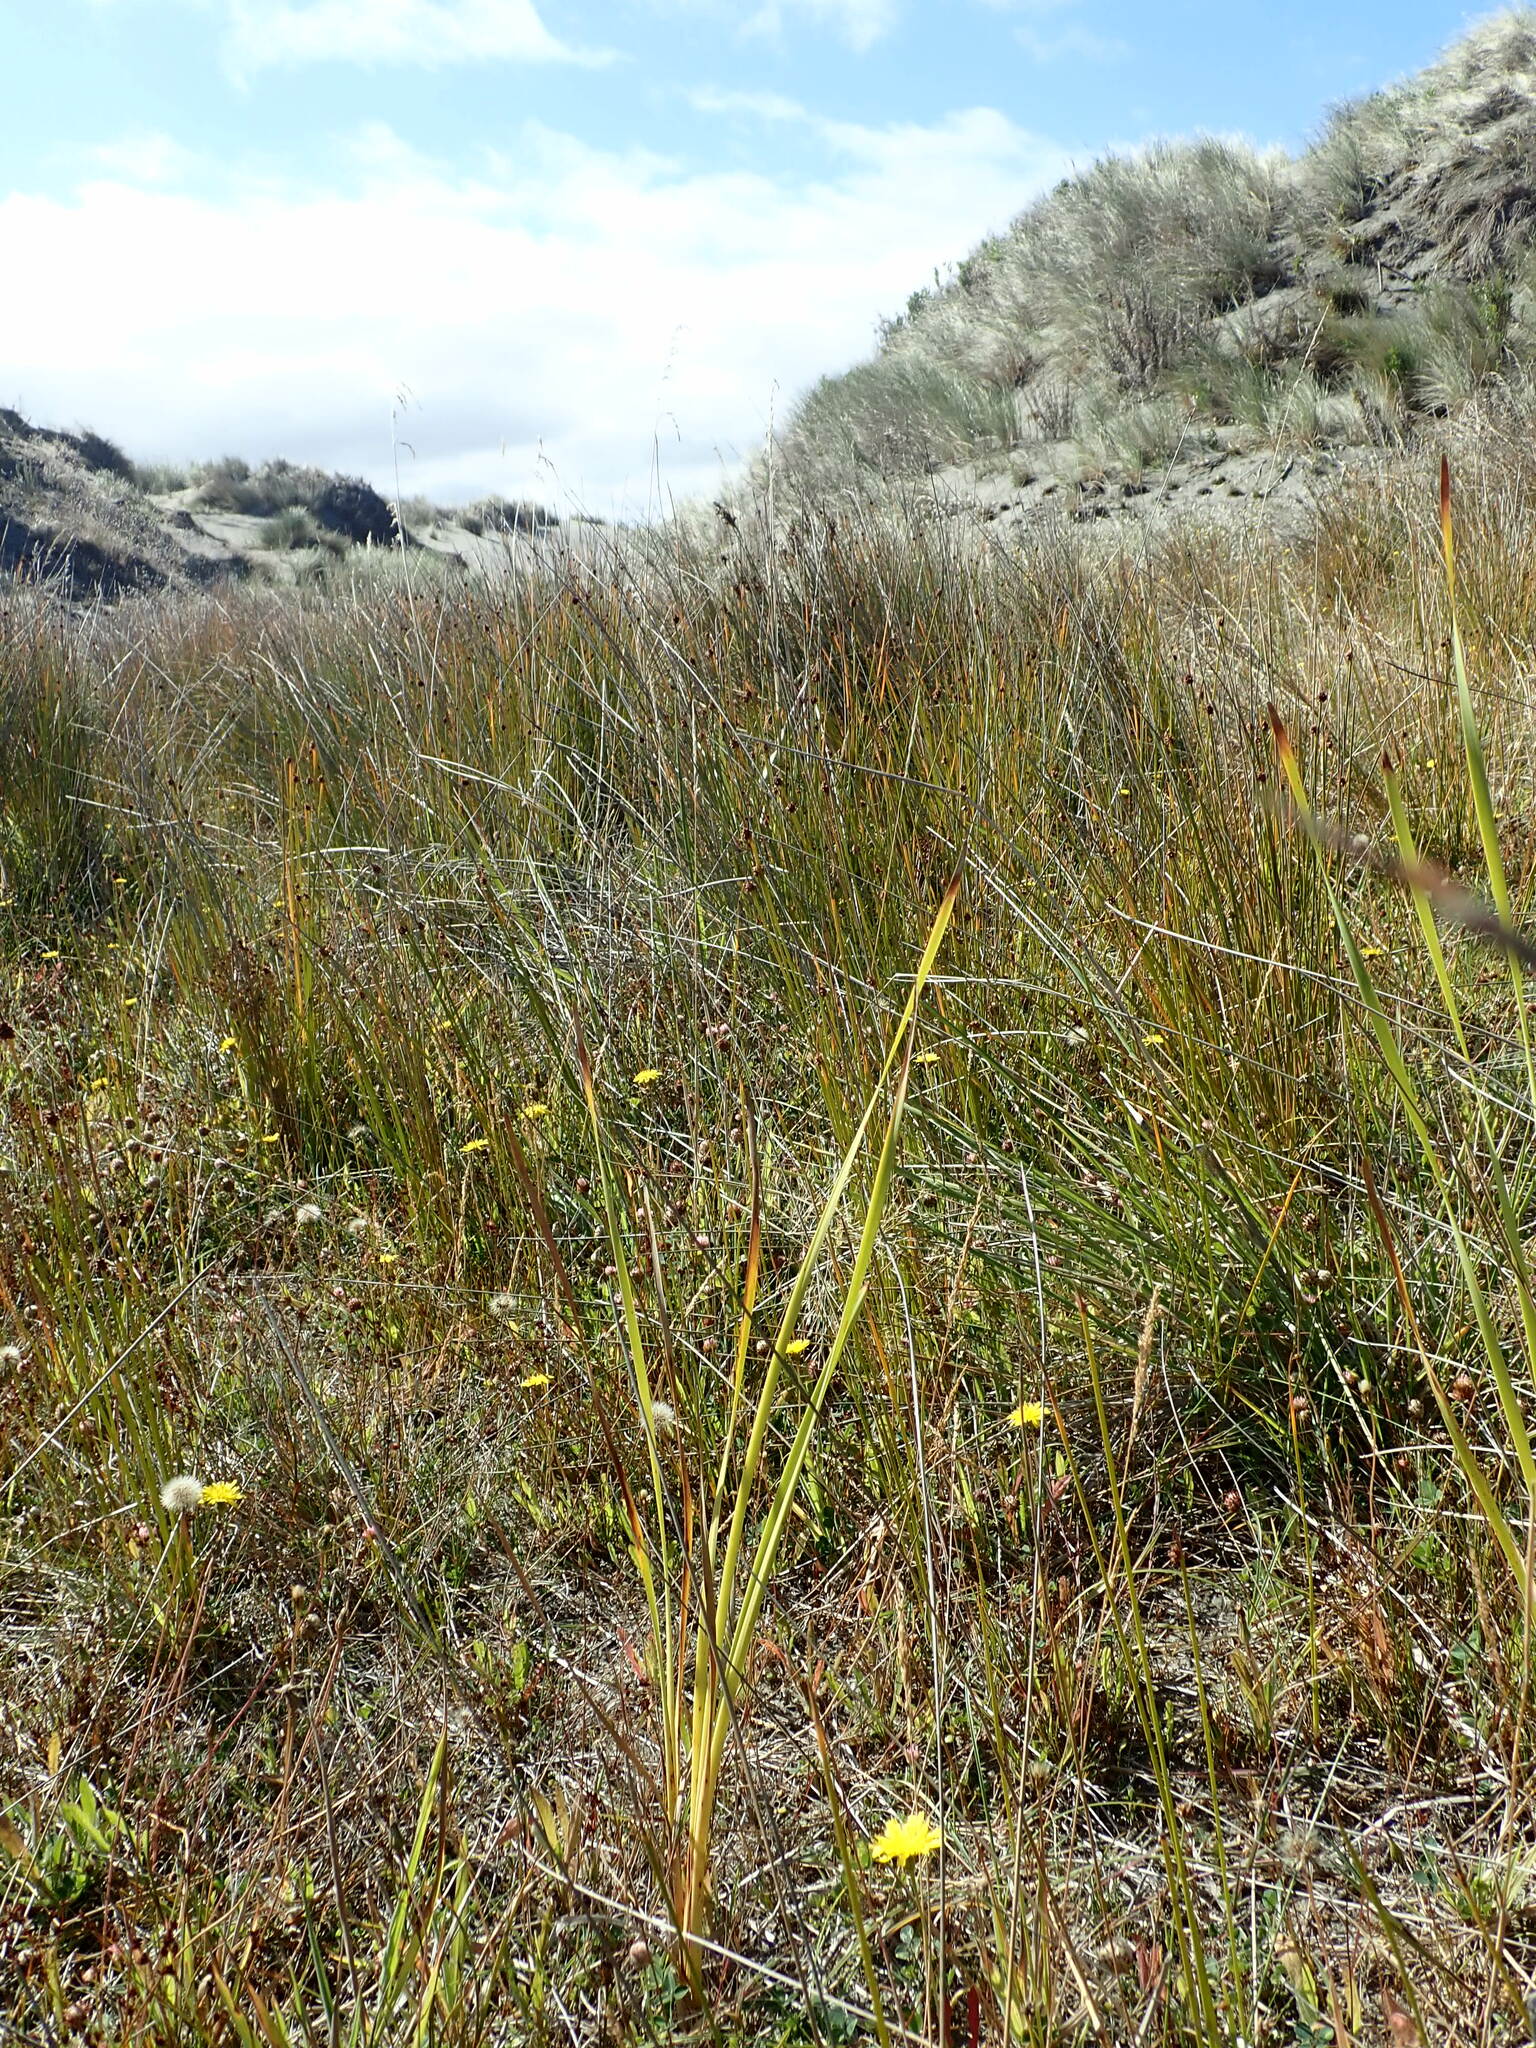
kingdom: Plantae
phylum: Tracheophyta
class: Liliopsida
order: Poales
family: Typhaceae
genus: Typha
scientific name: Typha orientalis
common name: Bullrush
